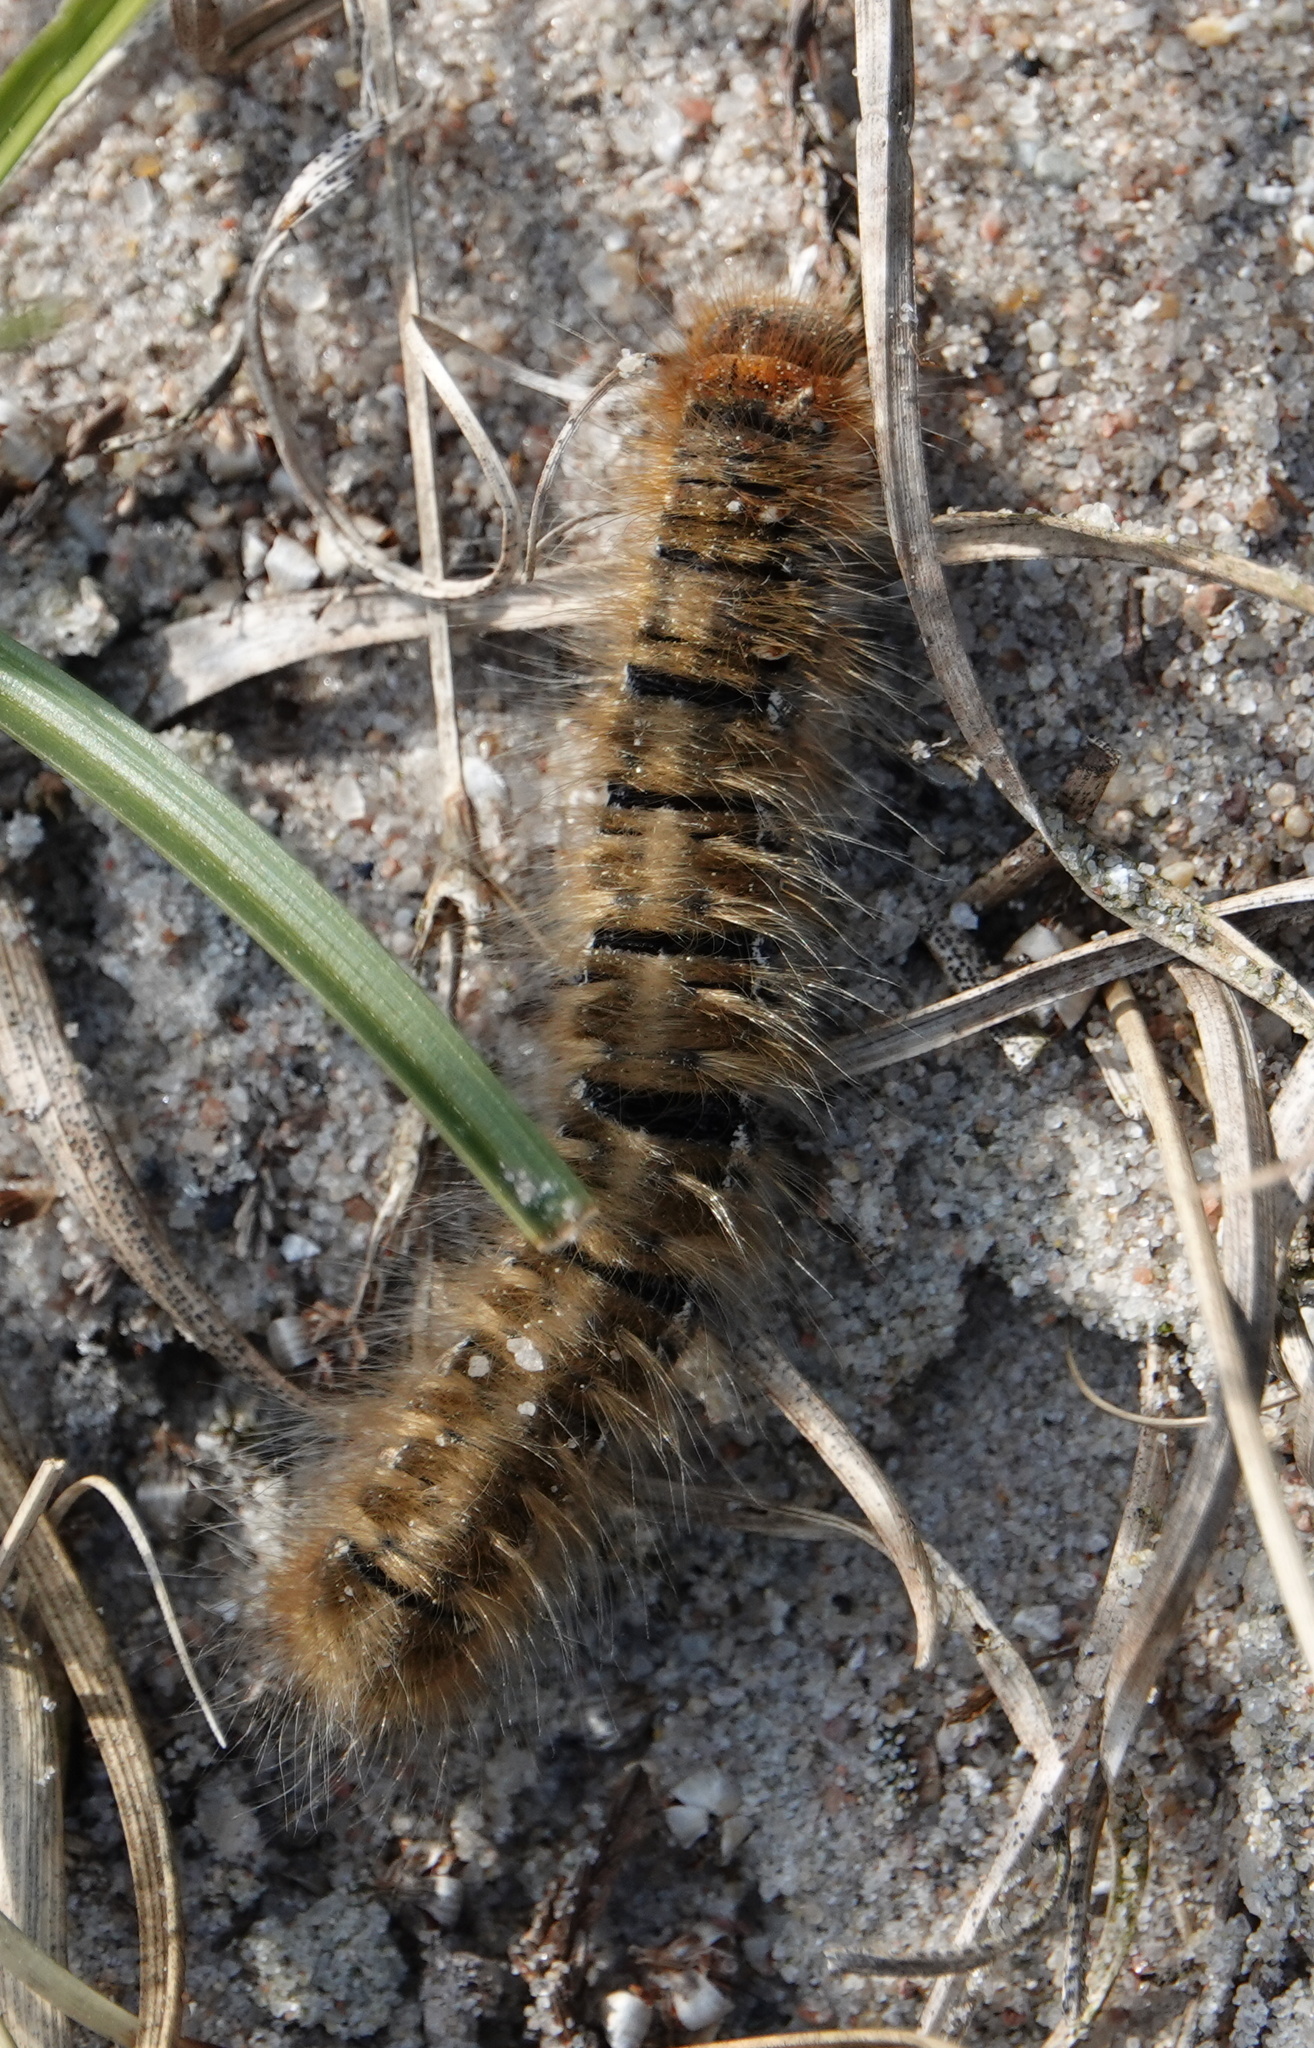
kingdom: Animalia
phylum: Arthropoda
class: Insecta
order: Lepidoptera
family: Lasiocampidae
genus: Lasiocampa
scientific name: Lasiocampa quercus
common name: Oak eggar
